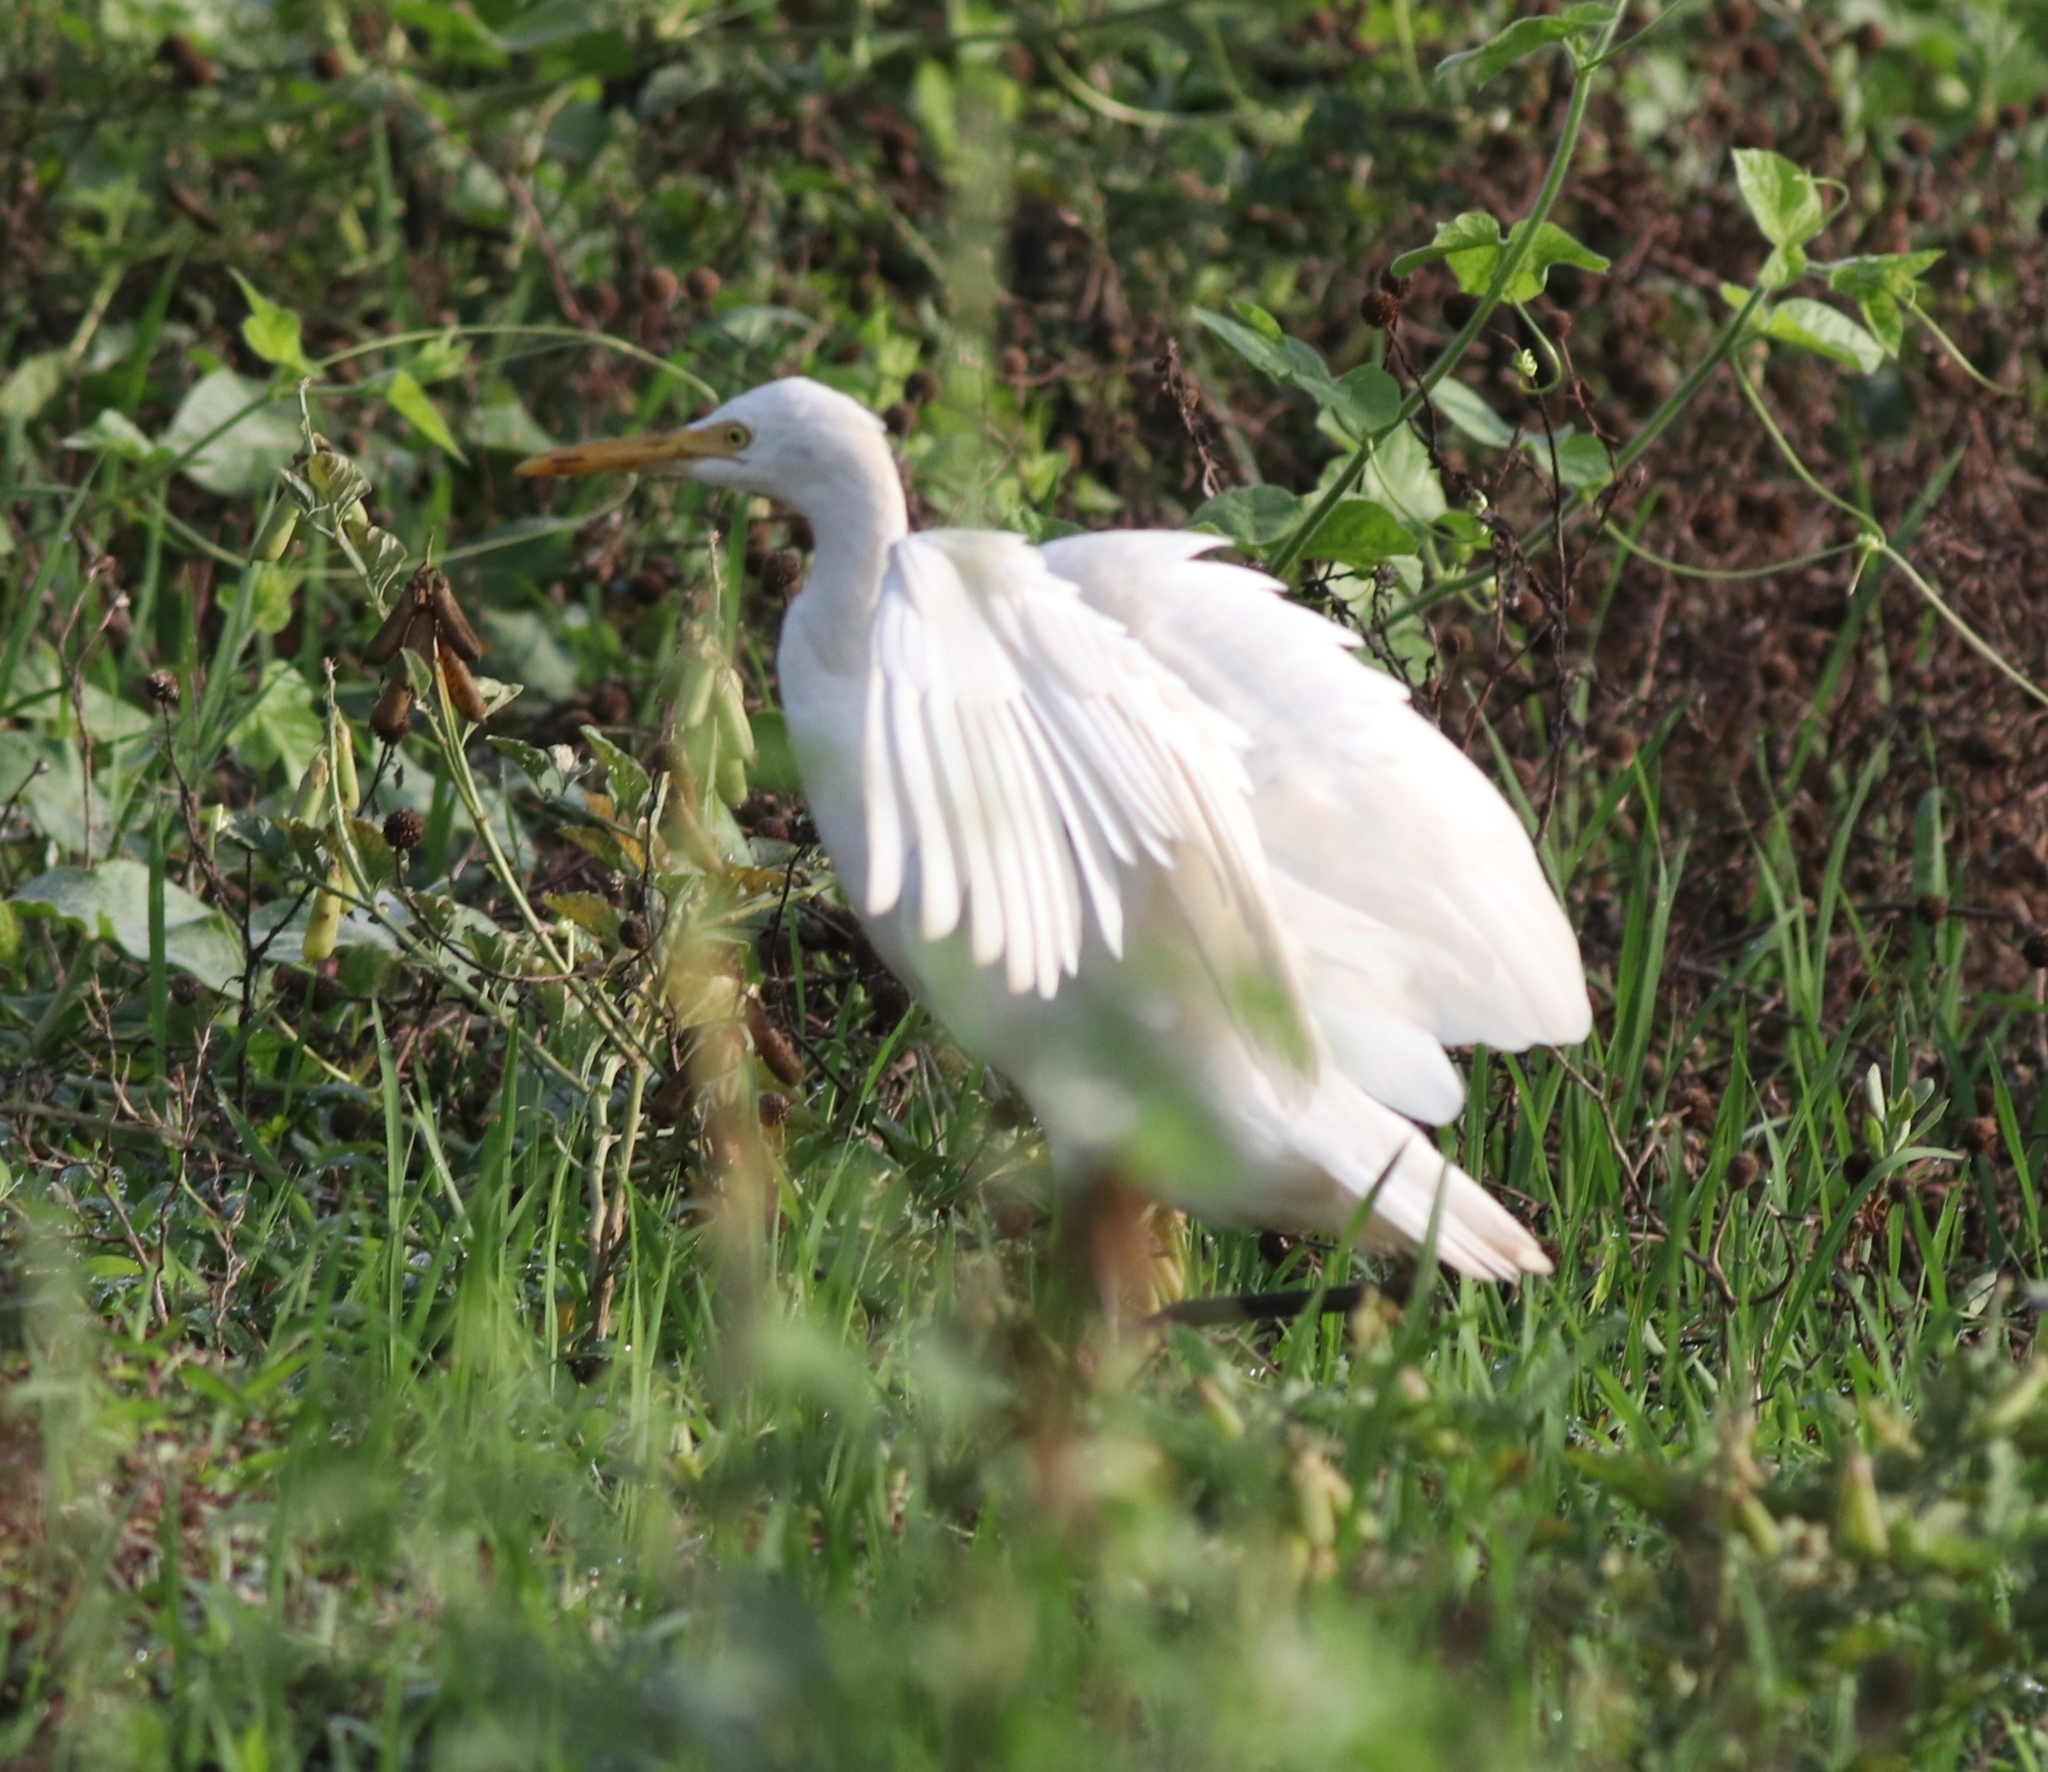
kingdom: Animalia
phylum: Chordata
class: Aves
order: Pelecaniformes
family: Ardeidae
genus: Bubulcus
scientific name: Bubulcus coromandus
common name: Eastern cattle egret
